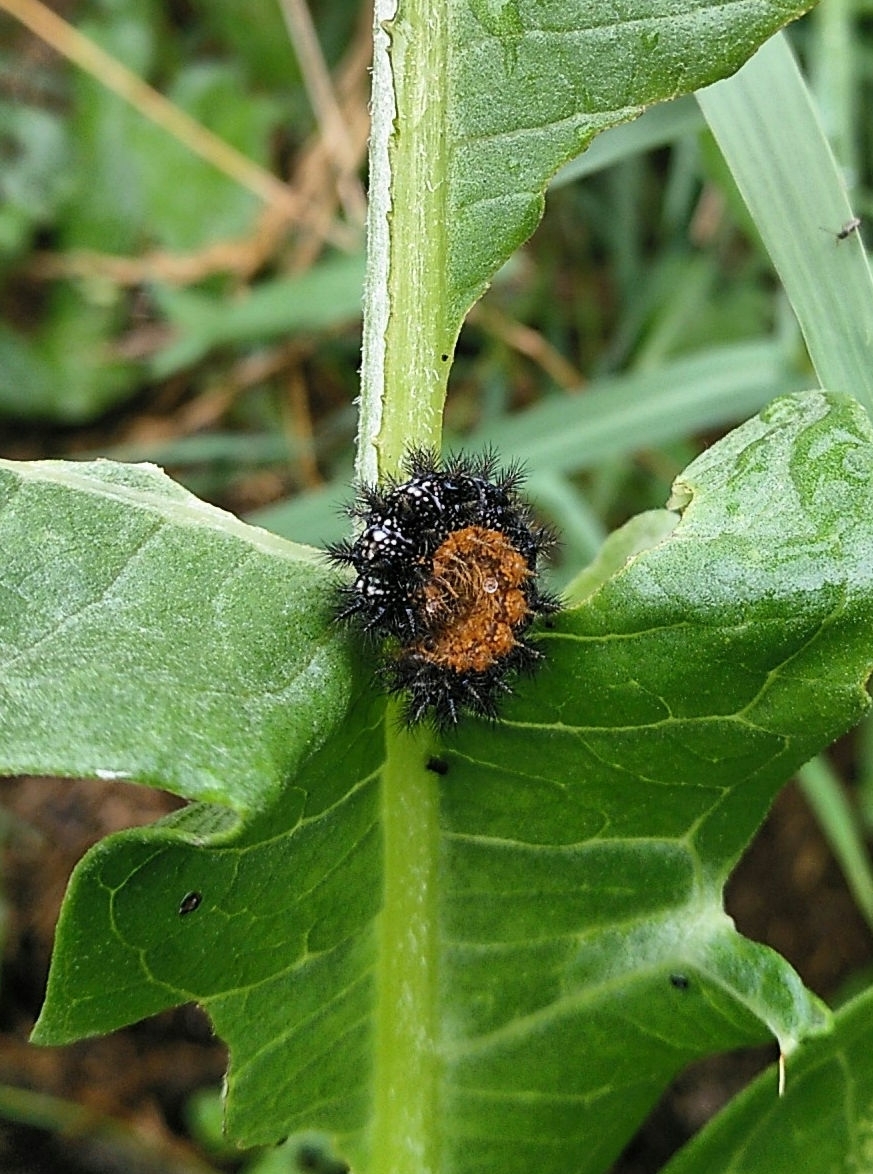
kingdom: Animalia
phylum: Arthropoda
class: Insecta
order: Lepidoptera
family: Nymphalidae
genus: Melitaea
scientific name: Melitaea phoebe
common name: Knapweed fritillary
